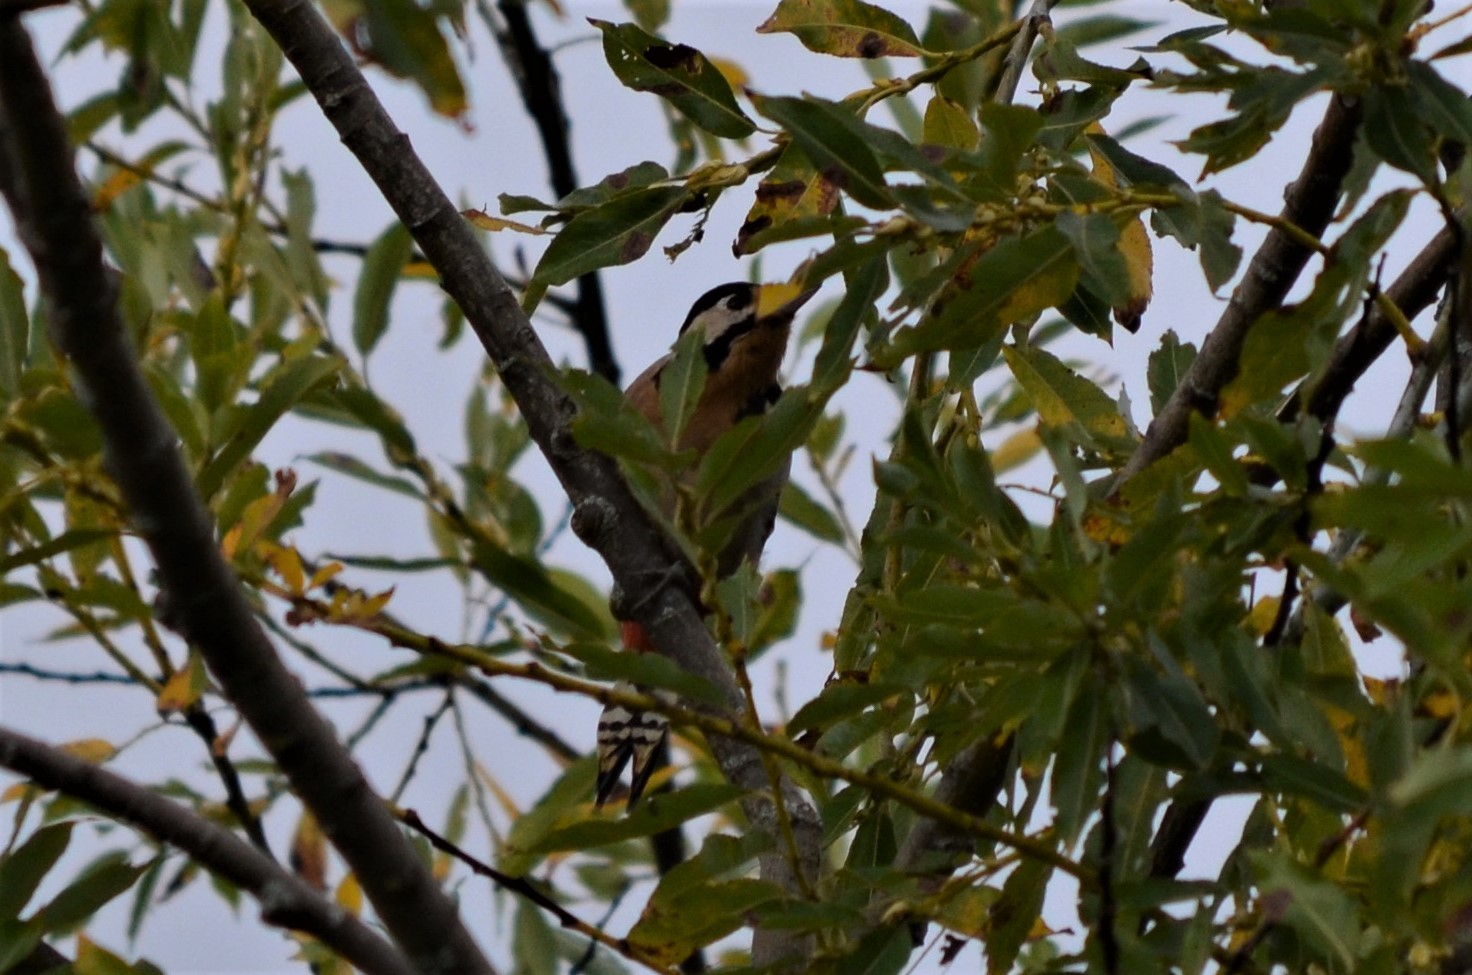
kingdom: Animalia
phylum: Chordata
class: Aves
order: Piciformes
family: Picidae
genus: Dendrocopos
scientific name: Dendrocopos major
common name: Great spotted woodpecker
